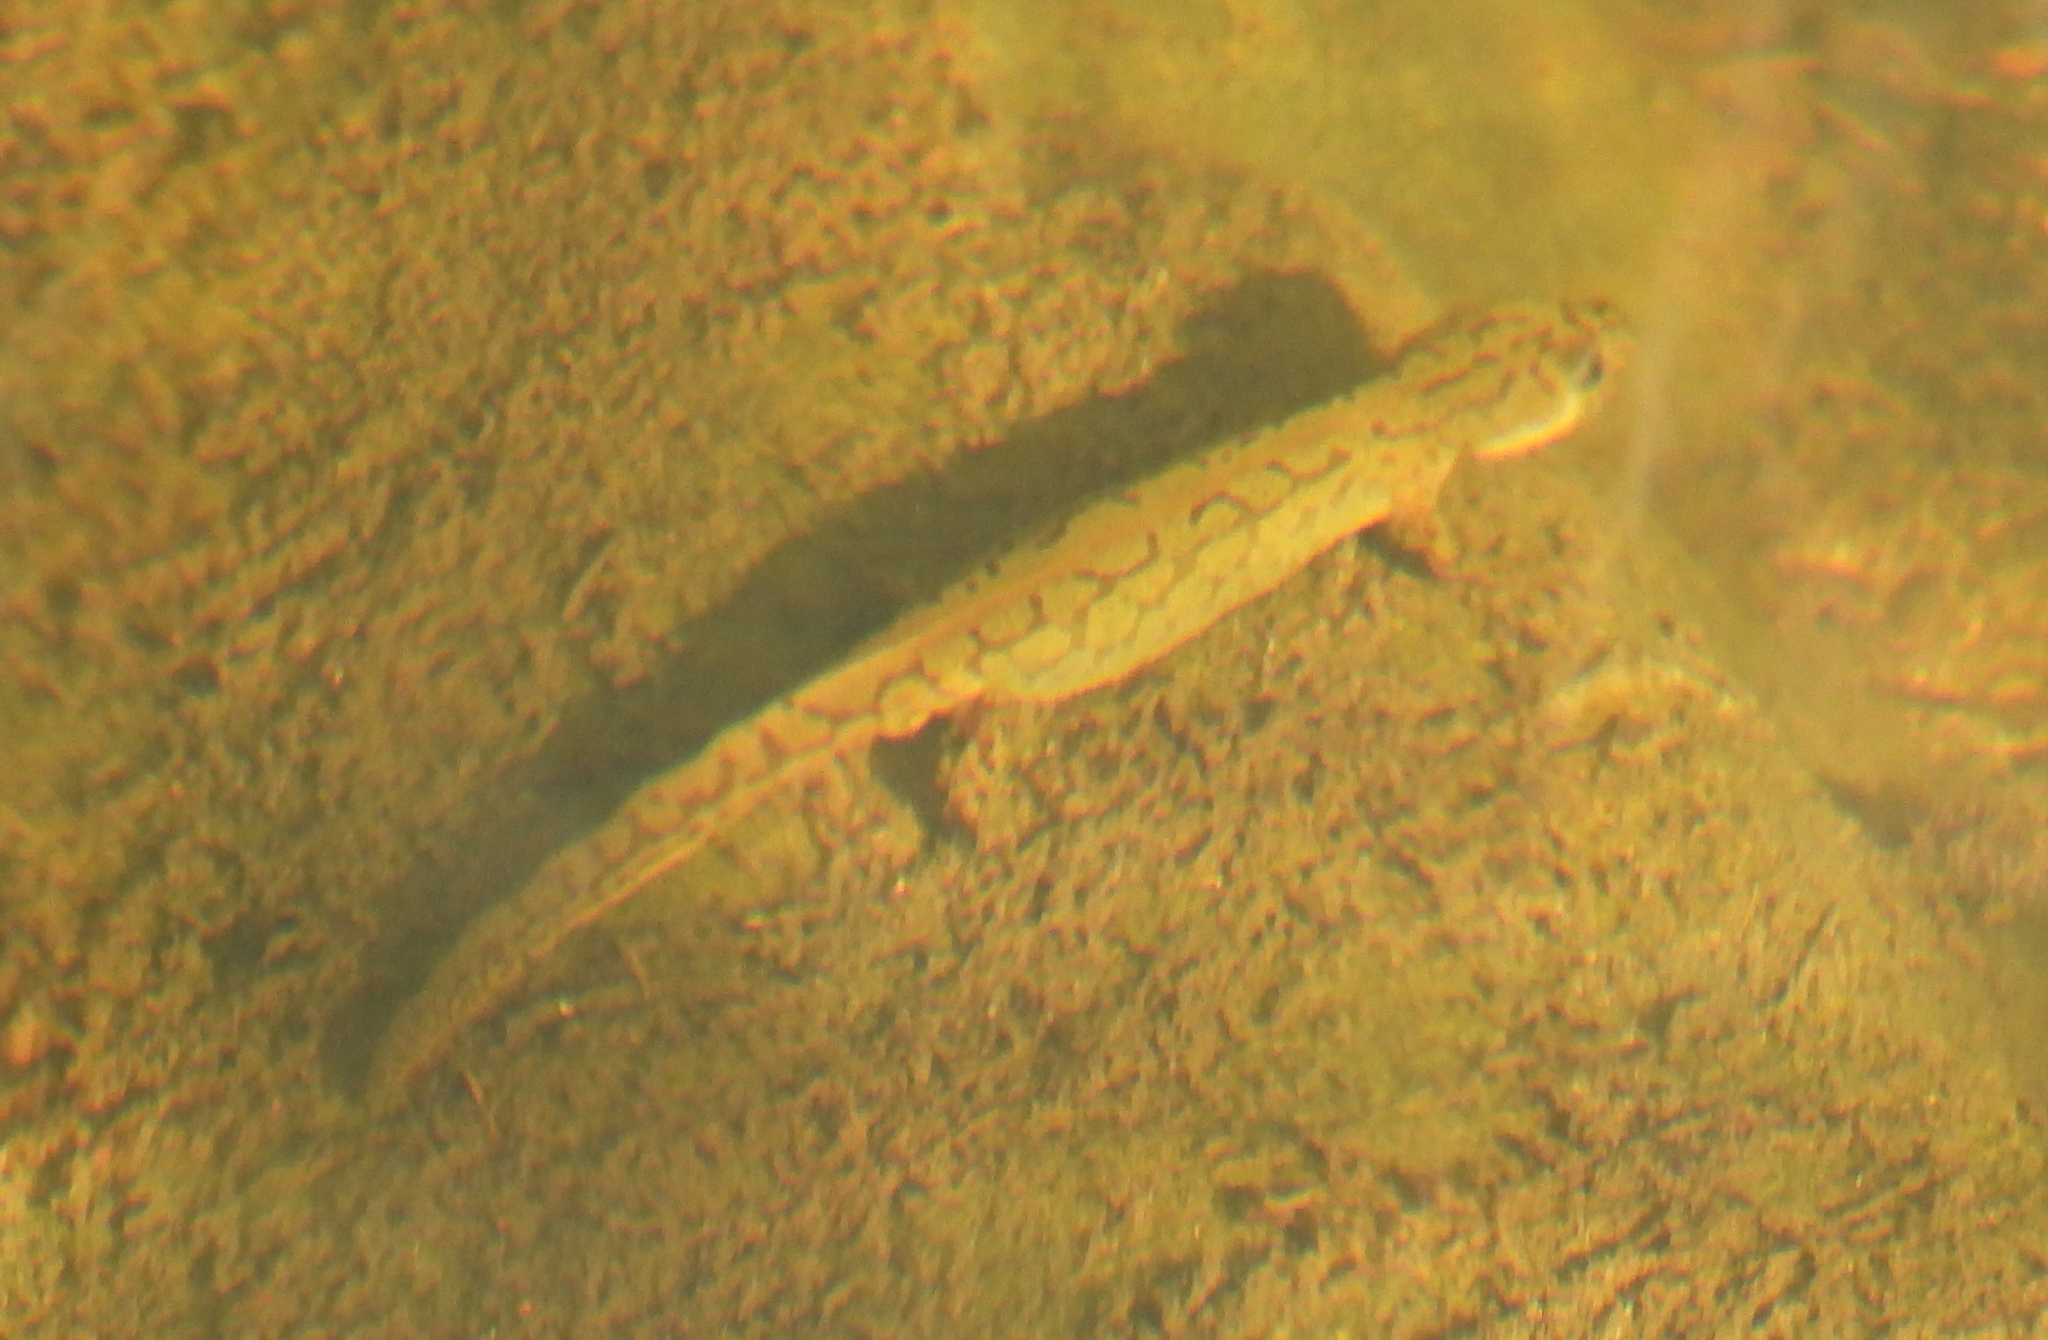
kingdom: Animalia
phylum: Chordata
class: Amphibia
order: Caudata
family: Salamandridae
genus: Ichthyosaura
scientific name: Ichthyosaura alpestris
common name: Alpine newt
